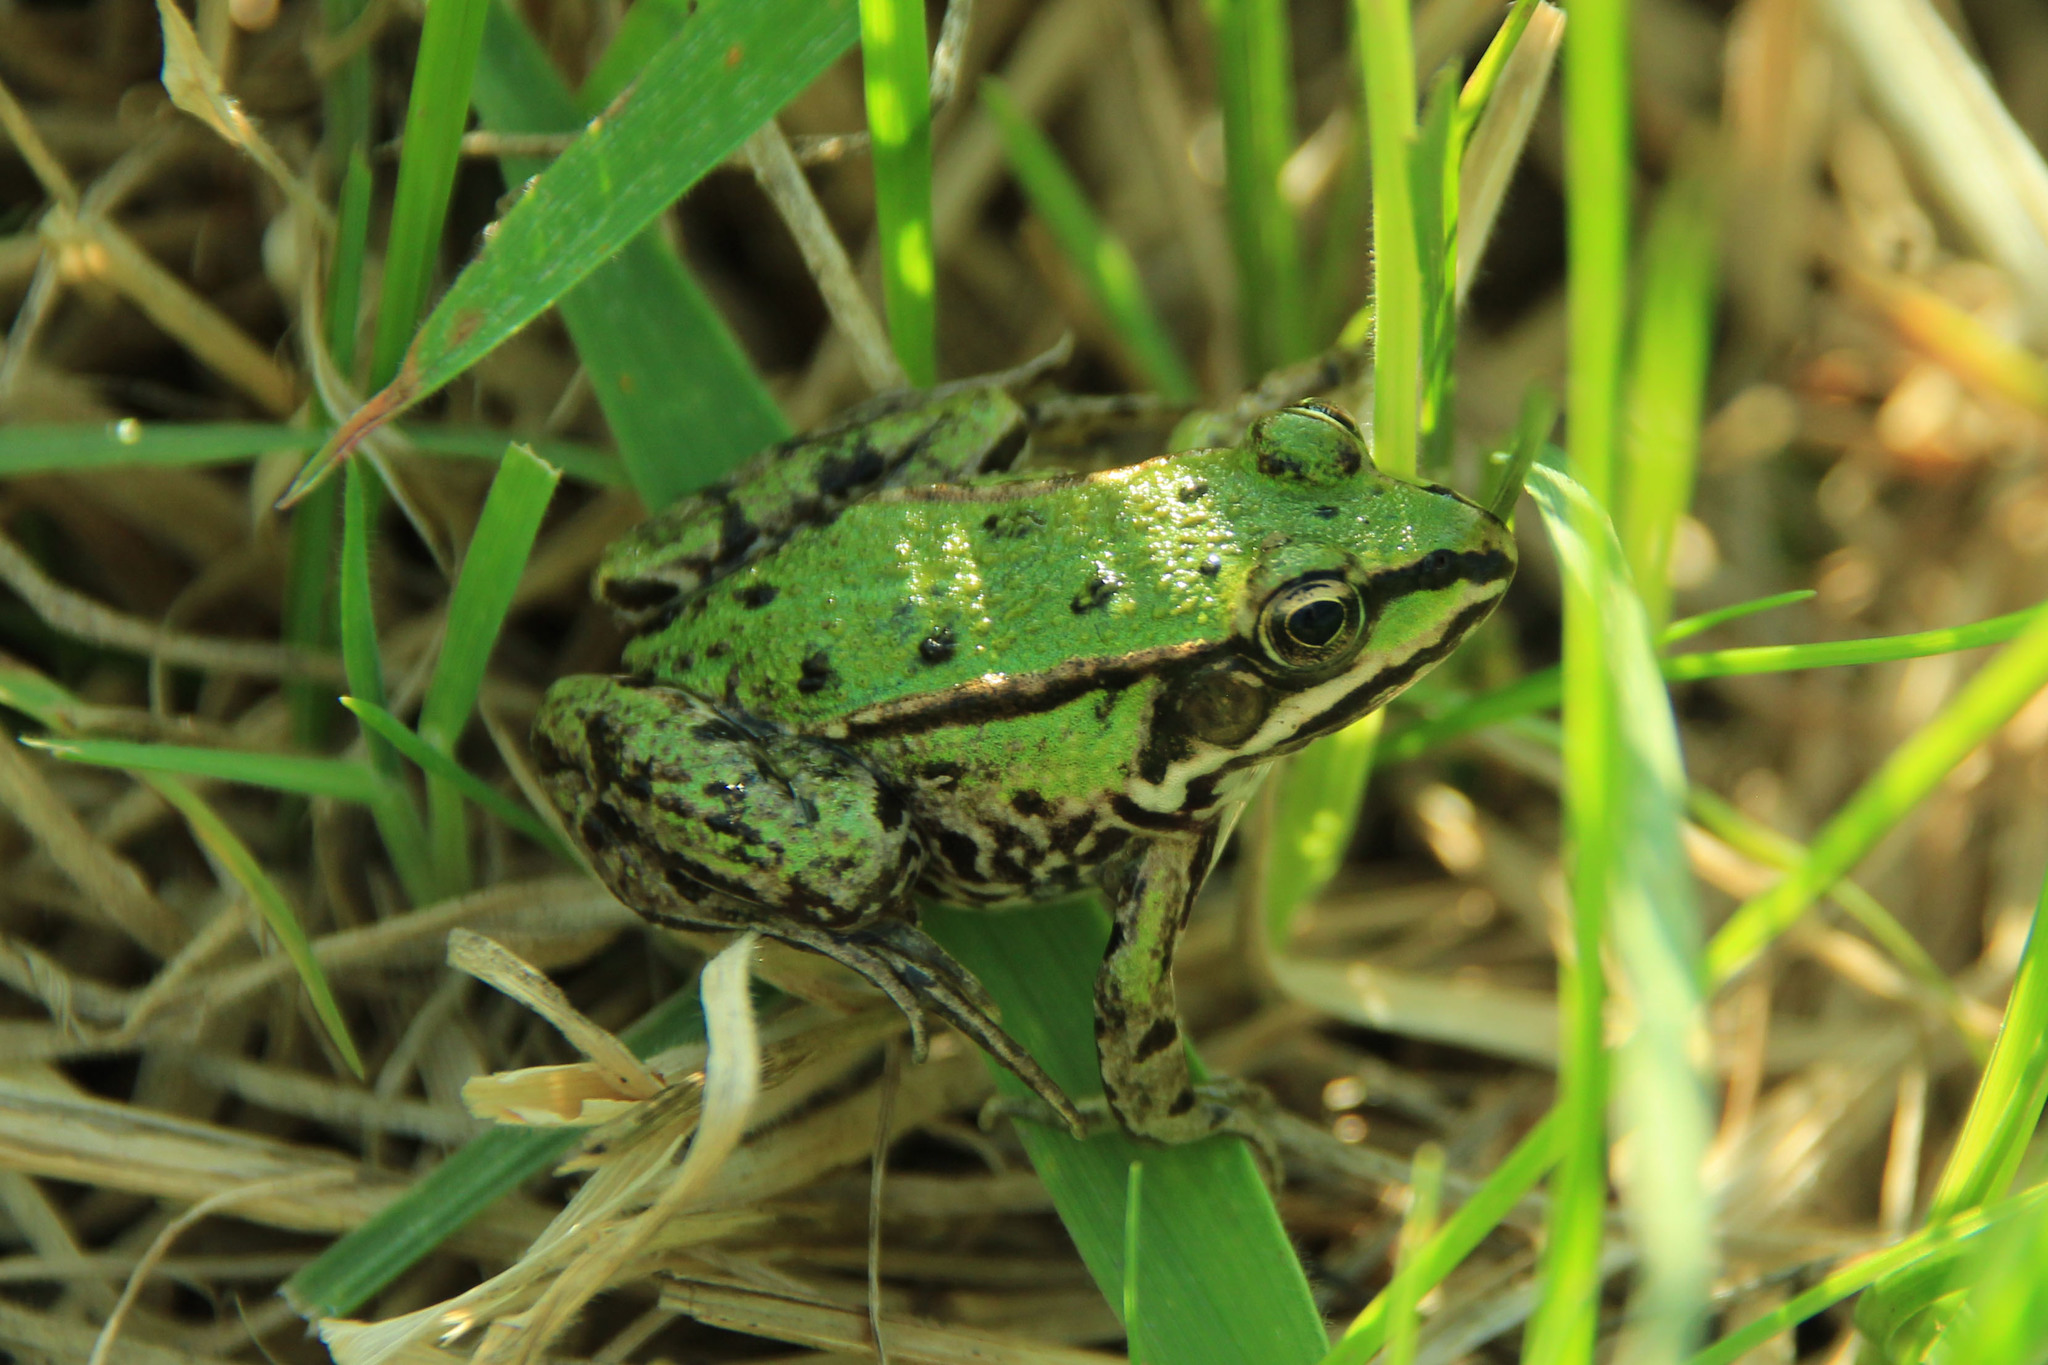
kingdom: Animalia
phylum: Chordata
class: Amphibia
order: Anura
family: Ranidae
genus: Pelophylax
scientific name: Pelophylax
